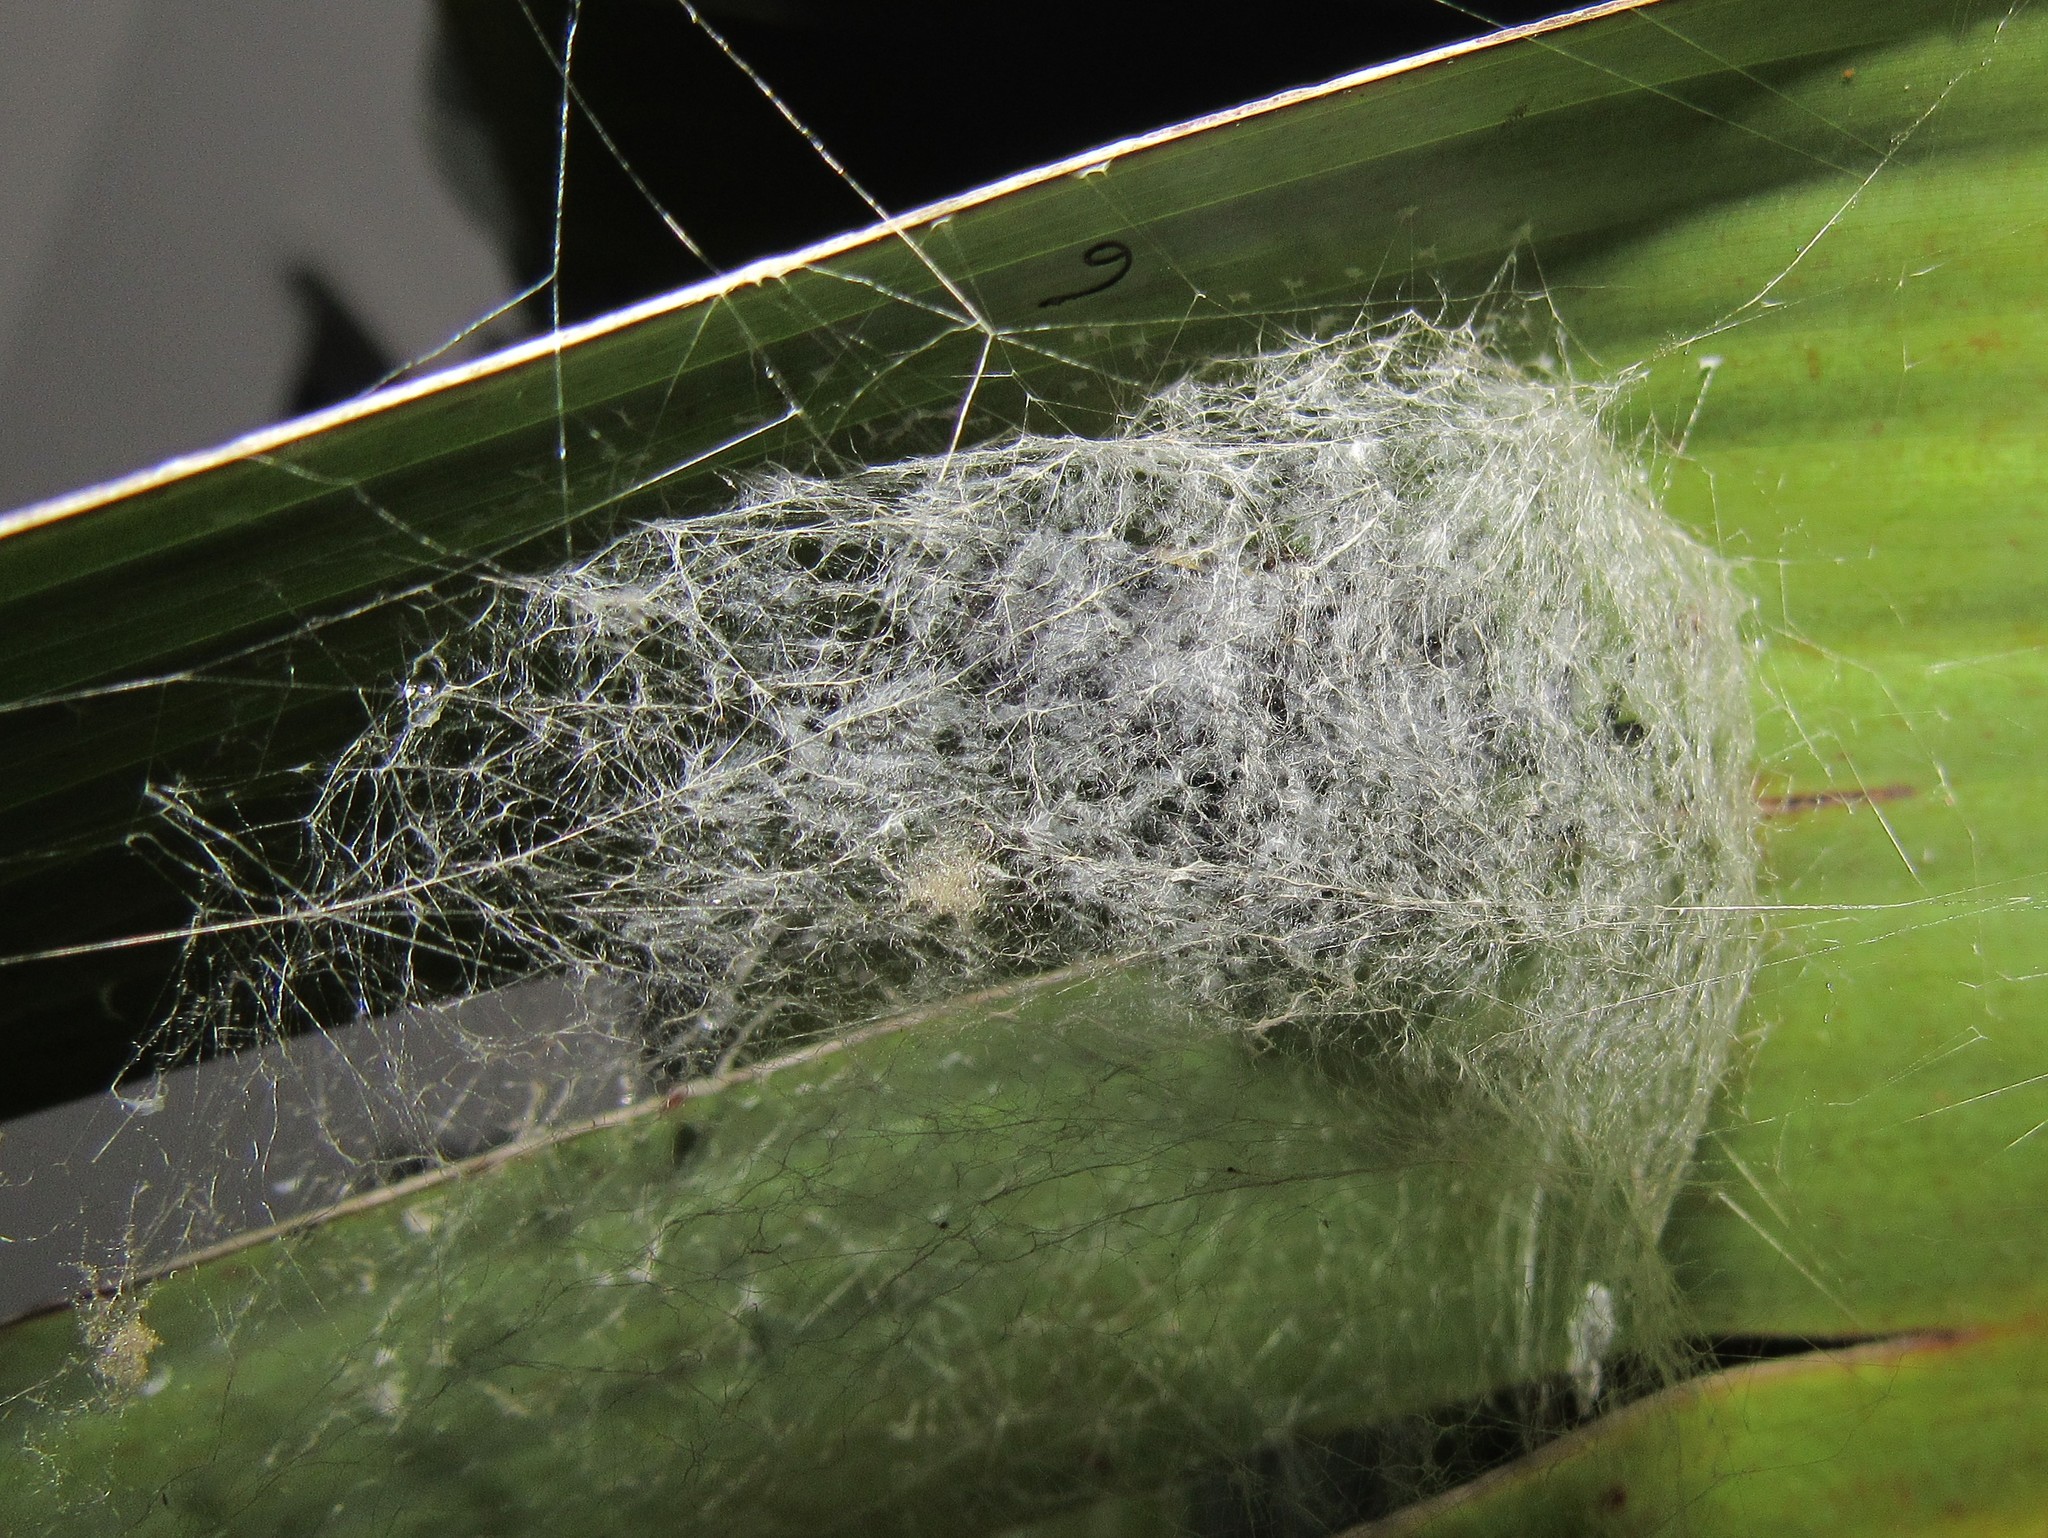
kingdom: Animalia
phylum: Arthropoda
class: Arachnida
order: Araneae
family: Araneidae
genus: Nephilingis
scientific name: Nephilingis cruentata
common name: African hermit spider
